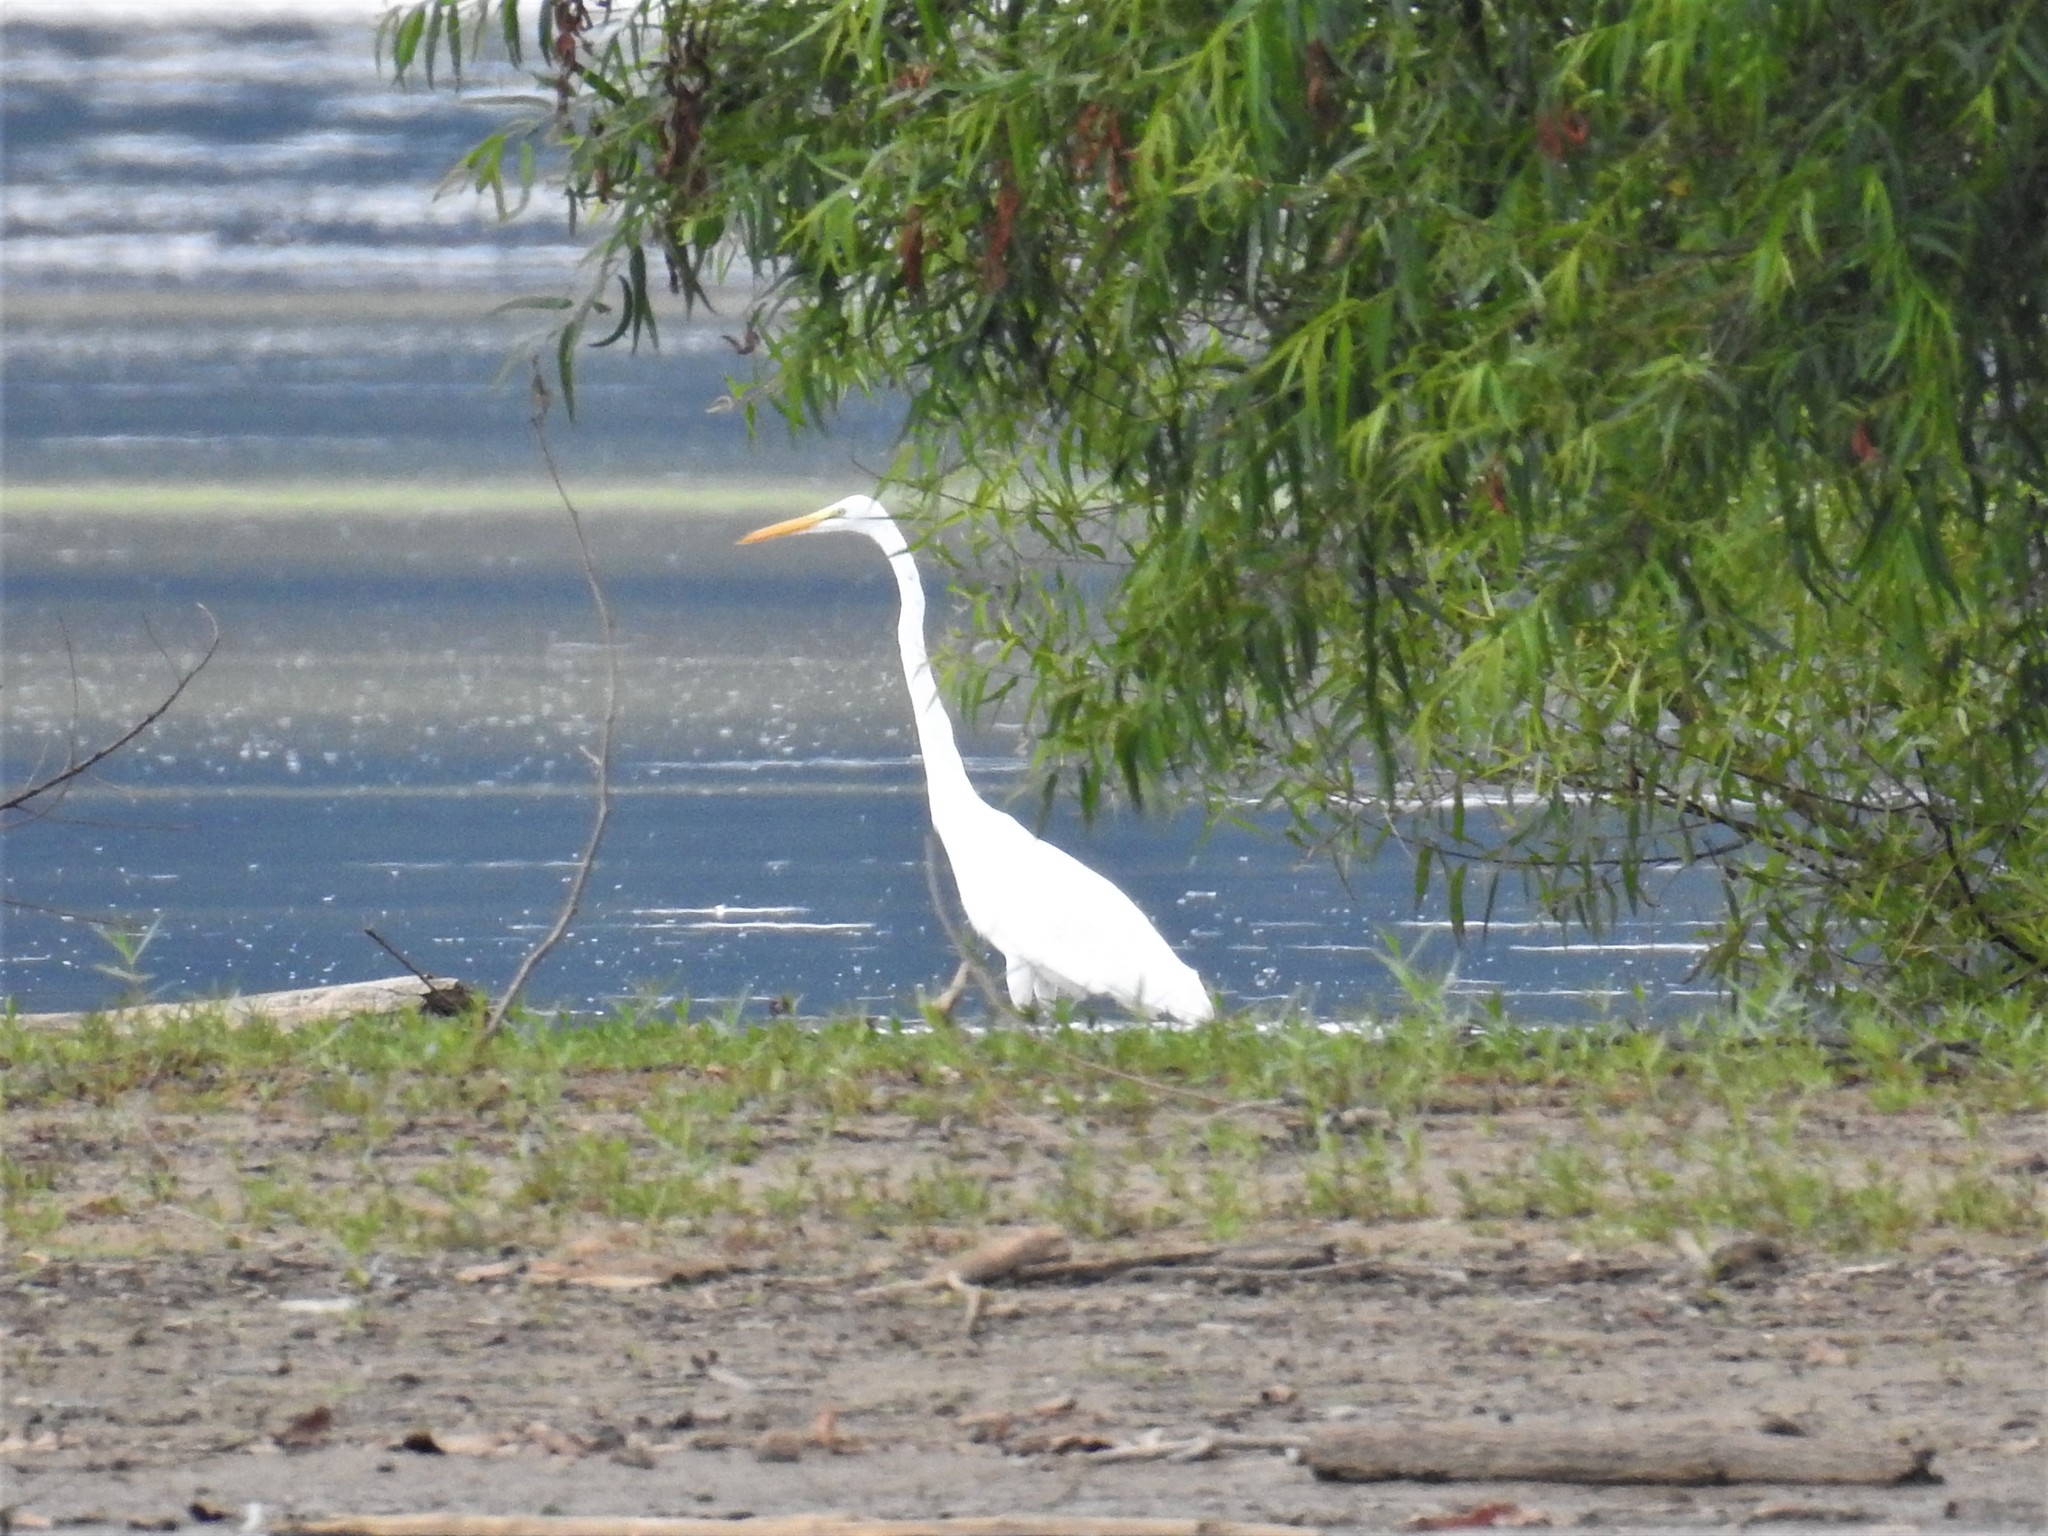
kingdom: Animalia
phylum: Chordata
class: Aves
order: Pelecaniformes
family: Ardeidae
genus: Ardea
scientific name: Ardea alba
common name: Great egret
